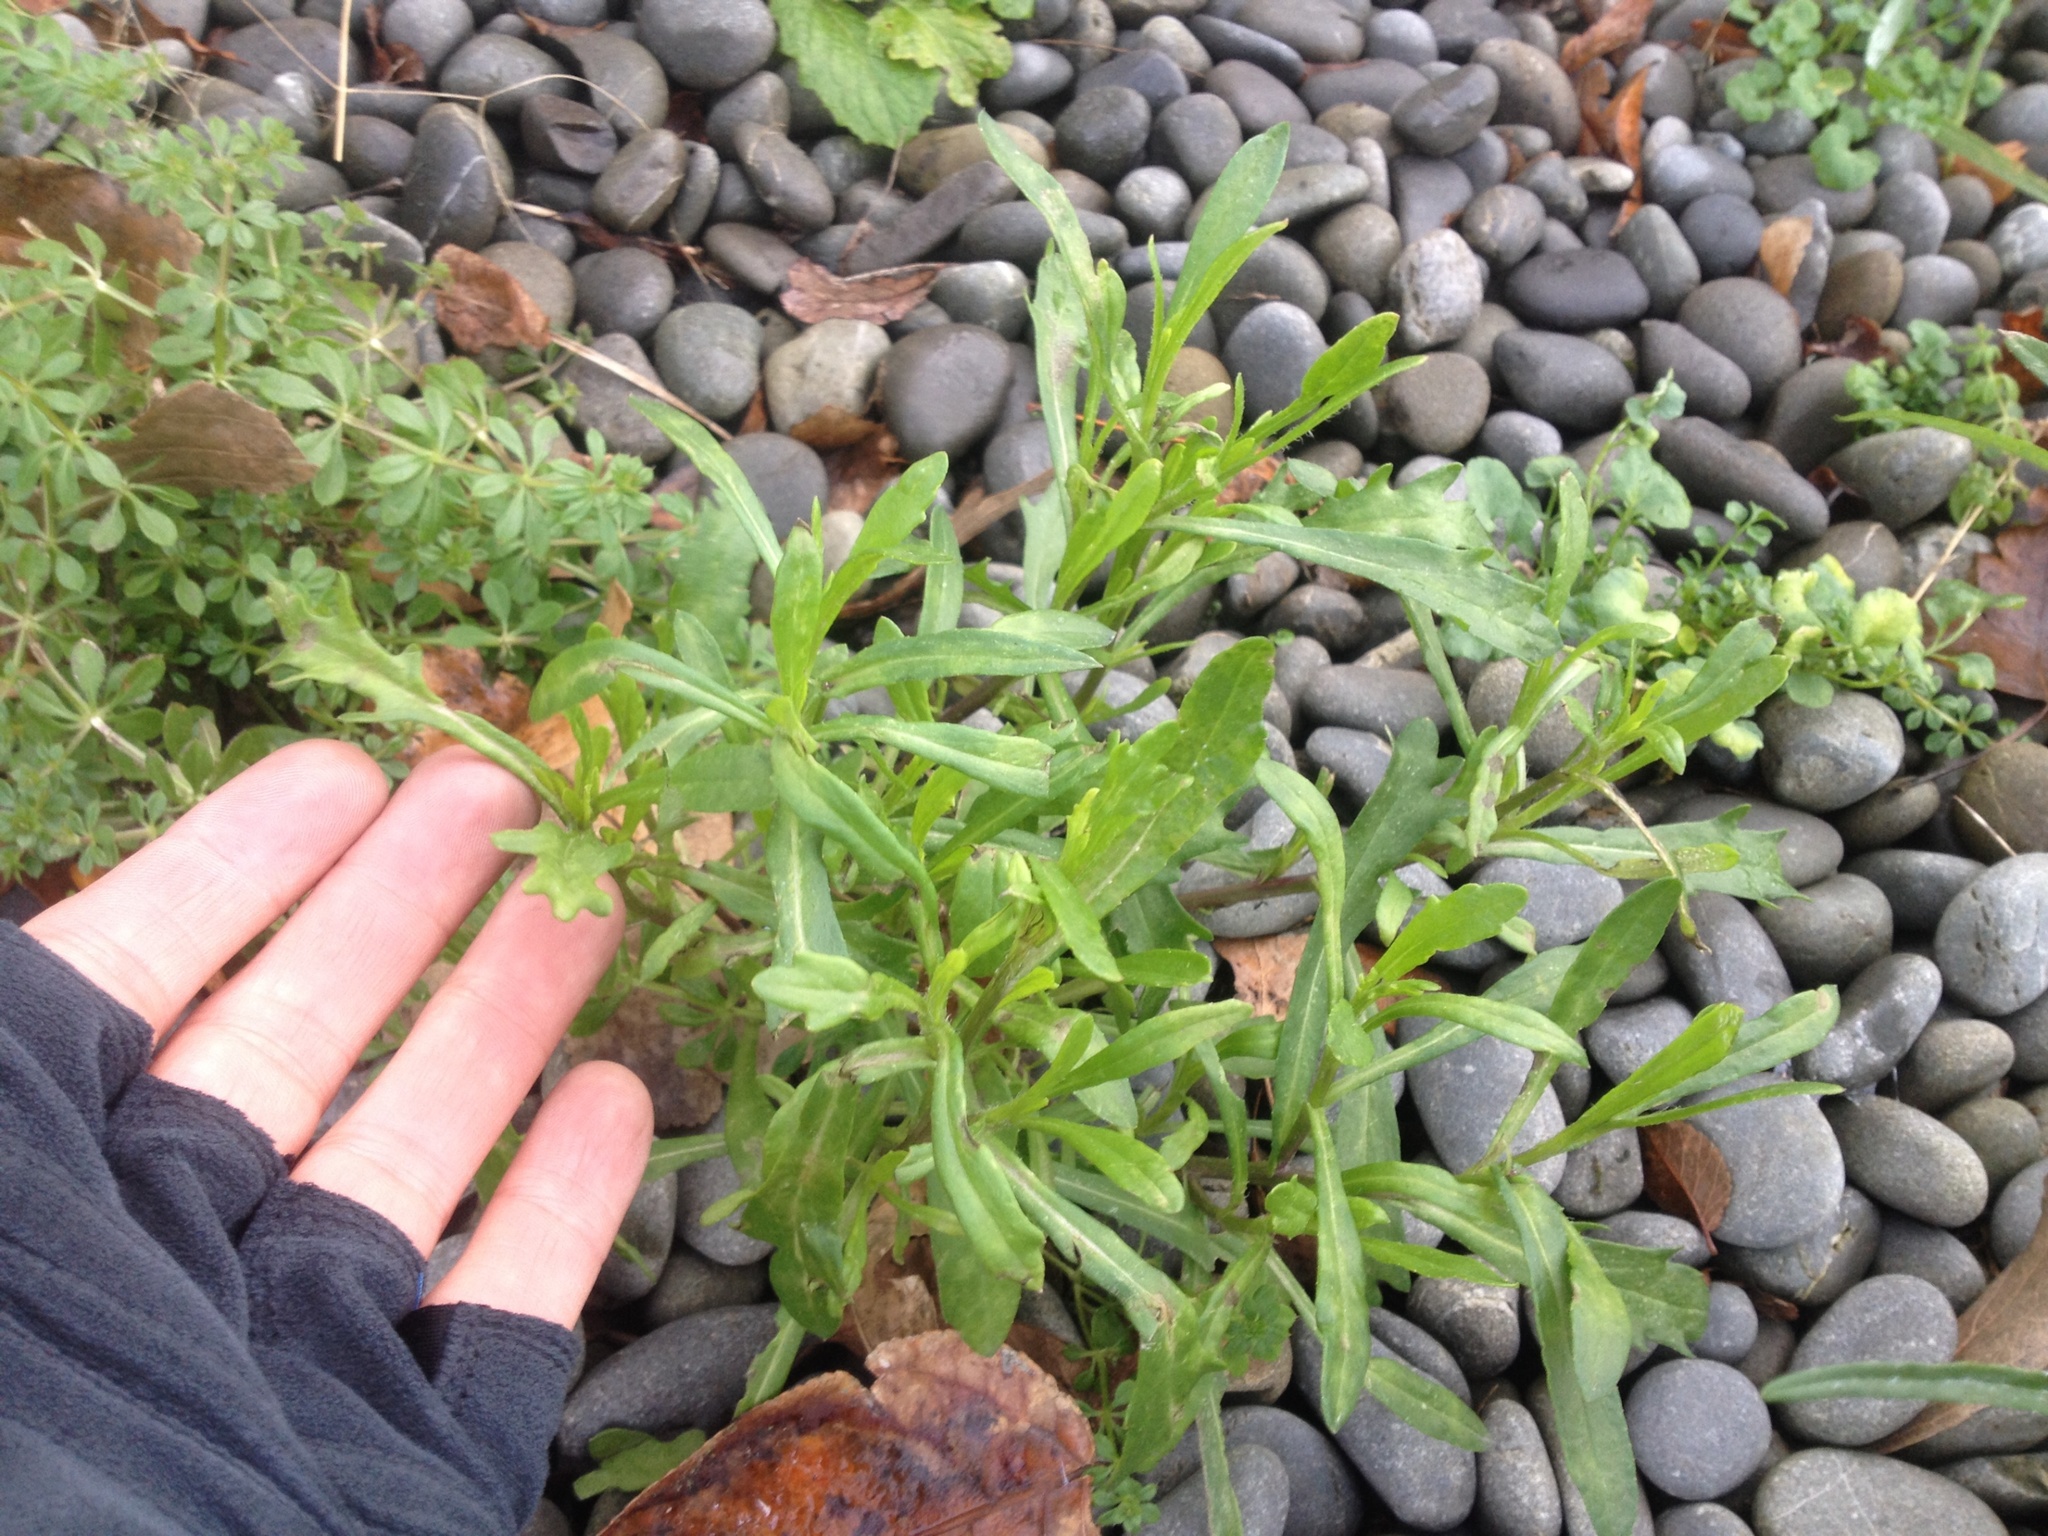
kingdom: Plantae
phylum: Tracheophyta
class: Magnoliopsida
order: Asterales
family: Asteraceae
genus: Senecio
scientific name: Senecio skirrhodon
